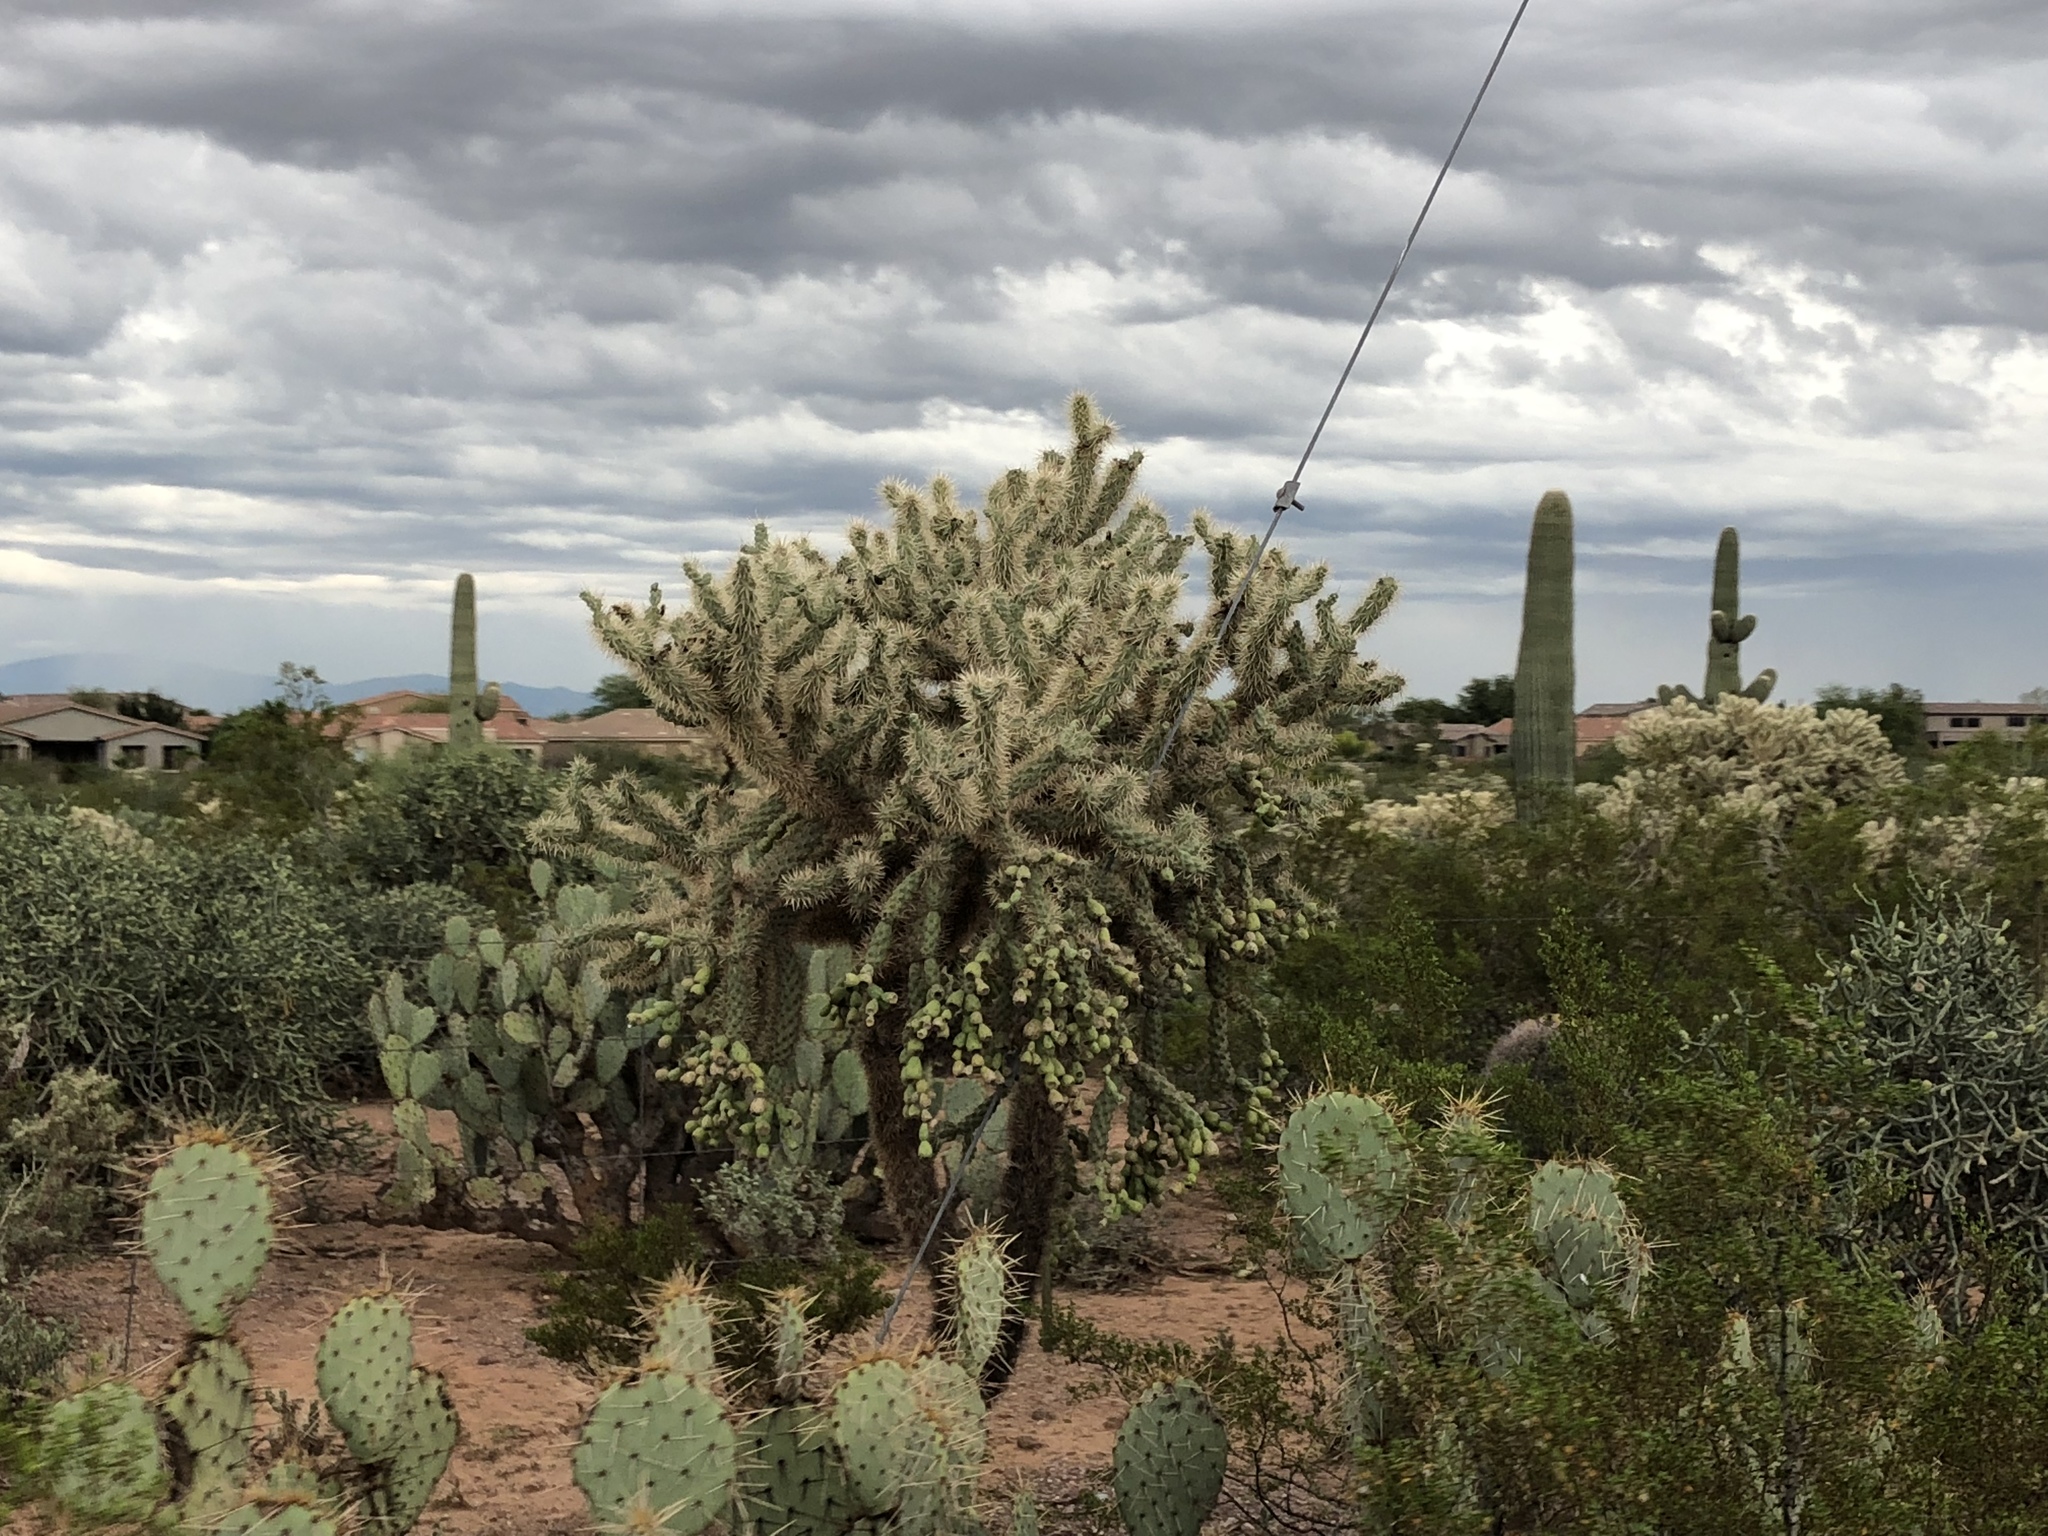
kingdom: Plantae
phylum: Tracheophyta
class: Magnoliopsida
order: Caryophyllales
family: Cactaceae
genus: Cylindropuntia
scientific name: Cylindropuntia fulgida
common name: Jumping cholla
